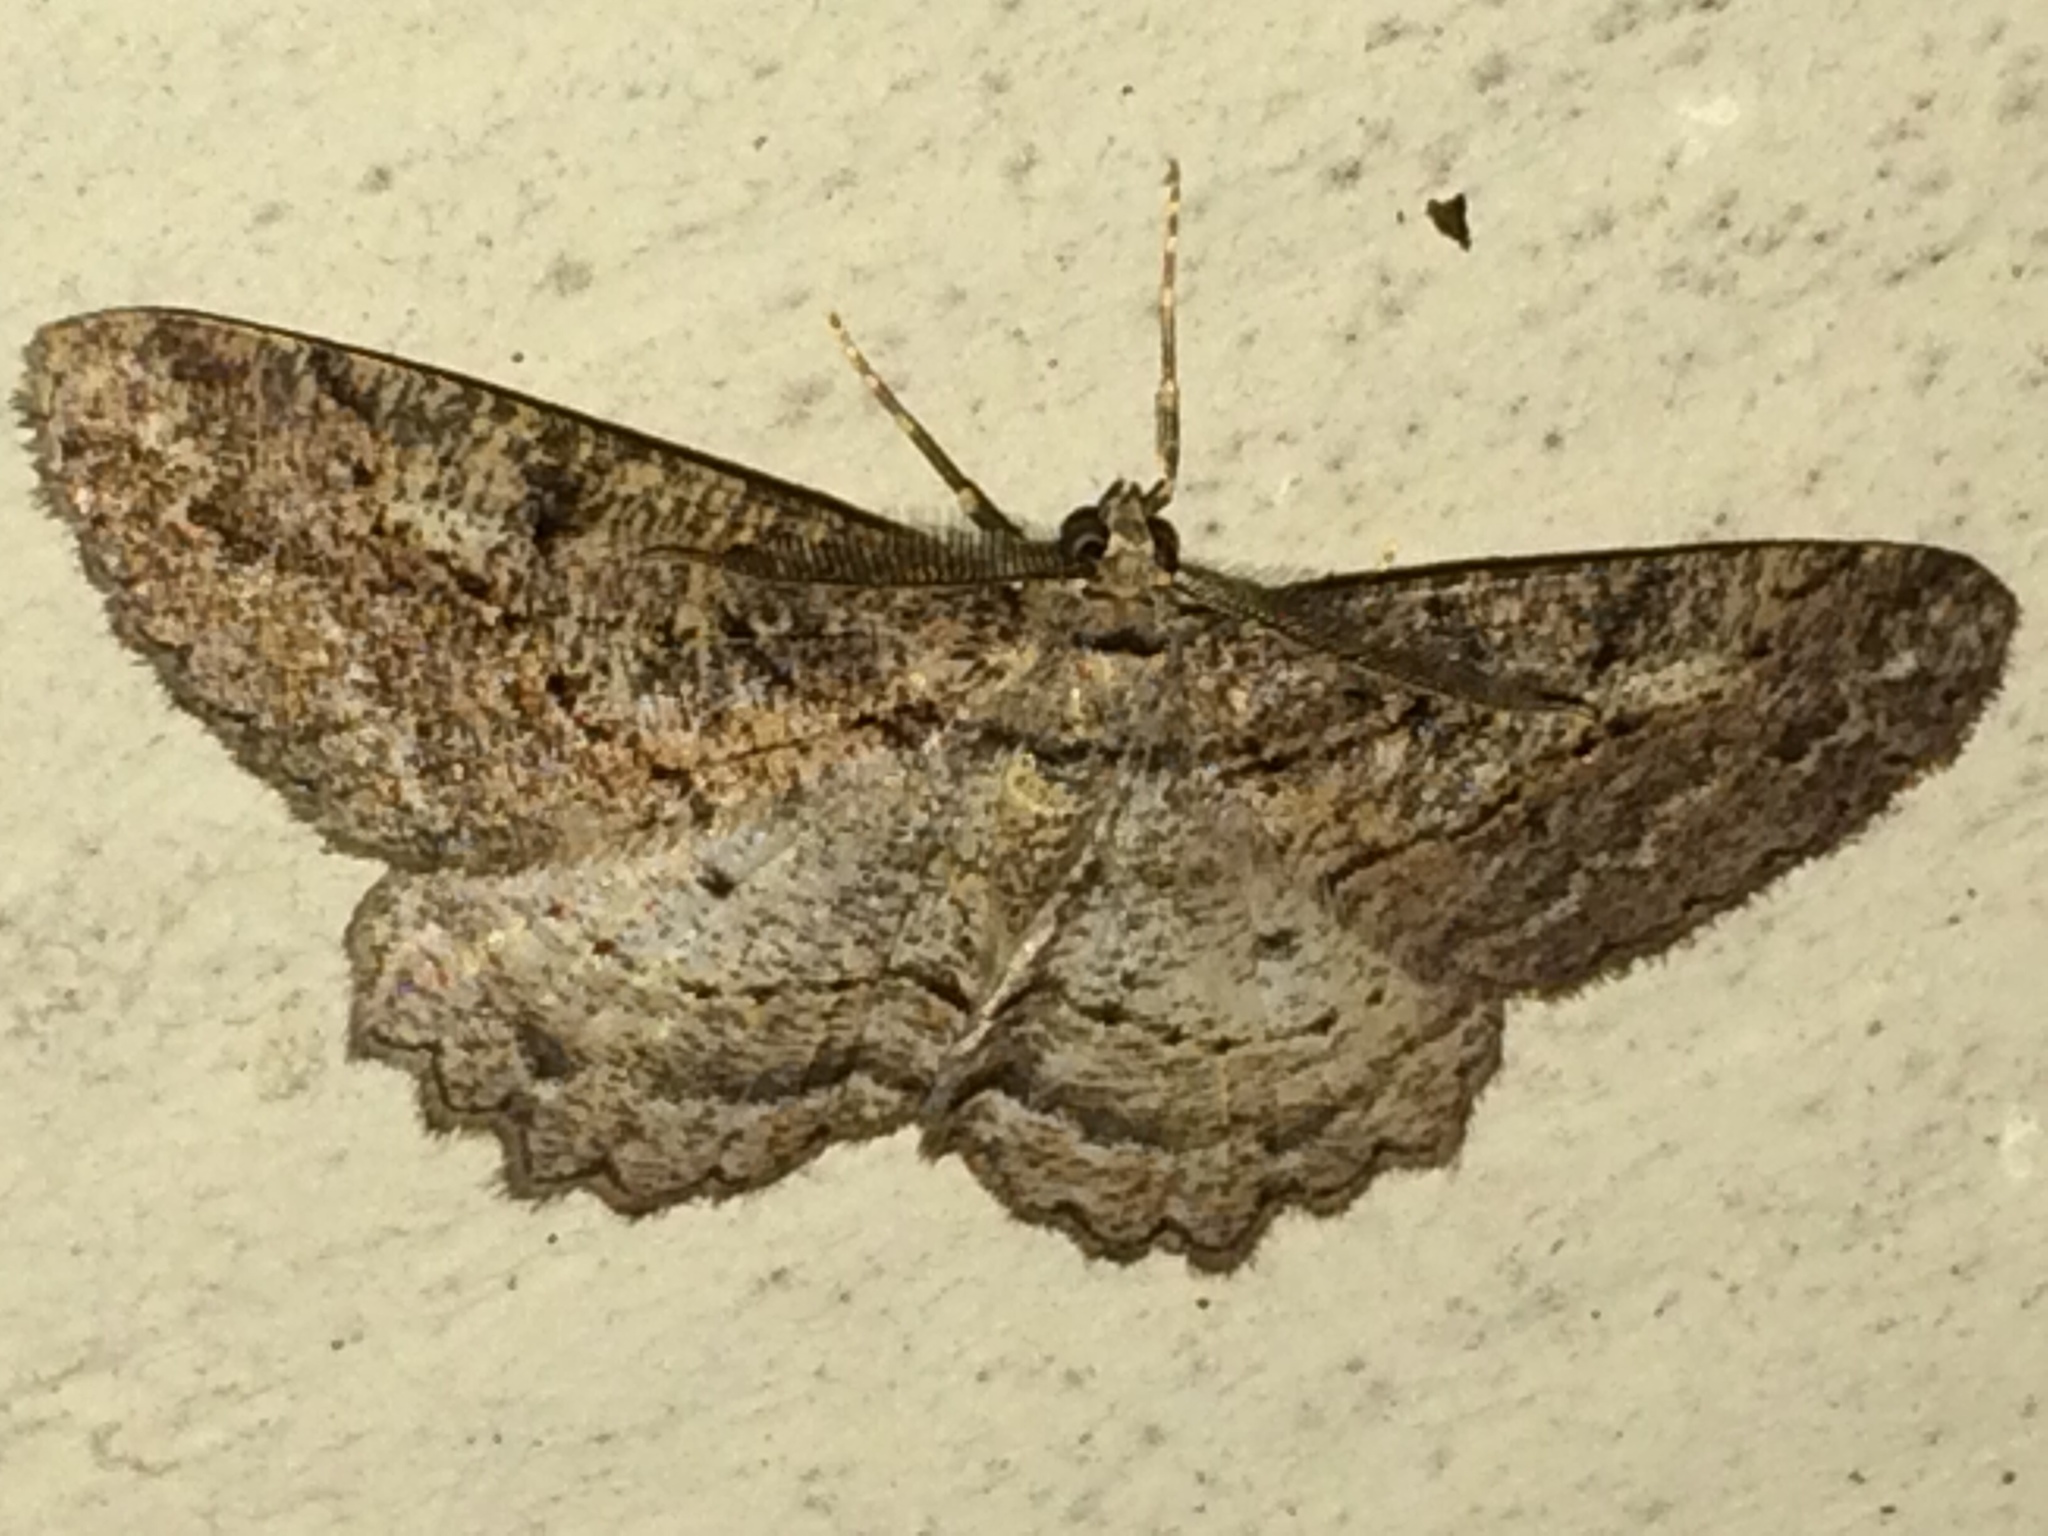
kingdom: Animalia
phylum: Arthropoda
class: Insecta
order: Lepidoptera
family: Geometridae
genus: Neoalcis
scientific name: Neoalcis californiaria
